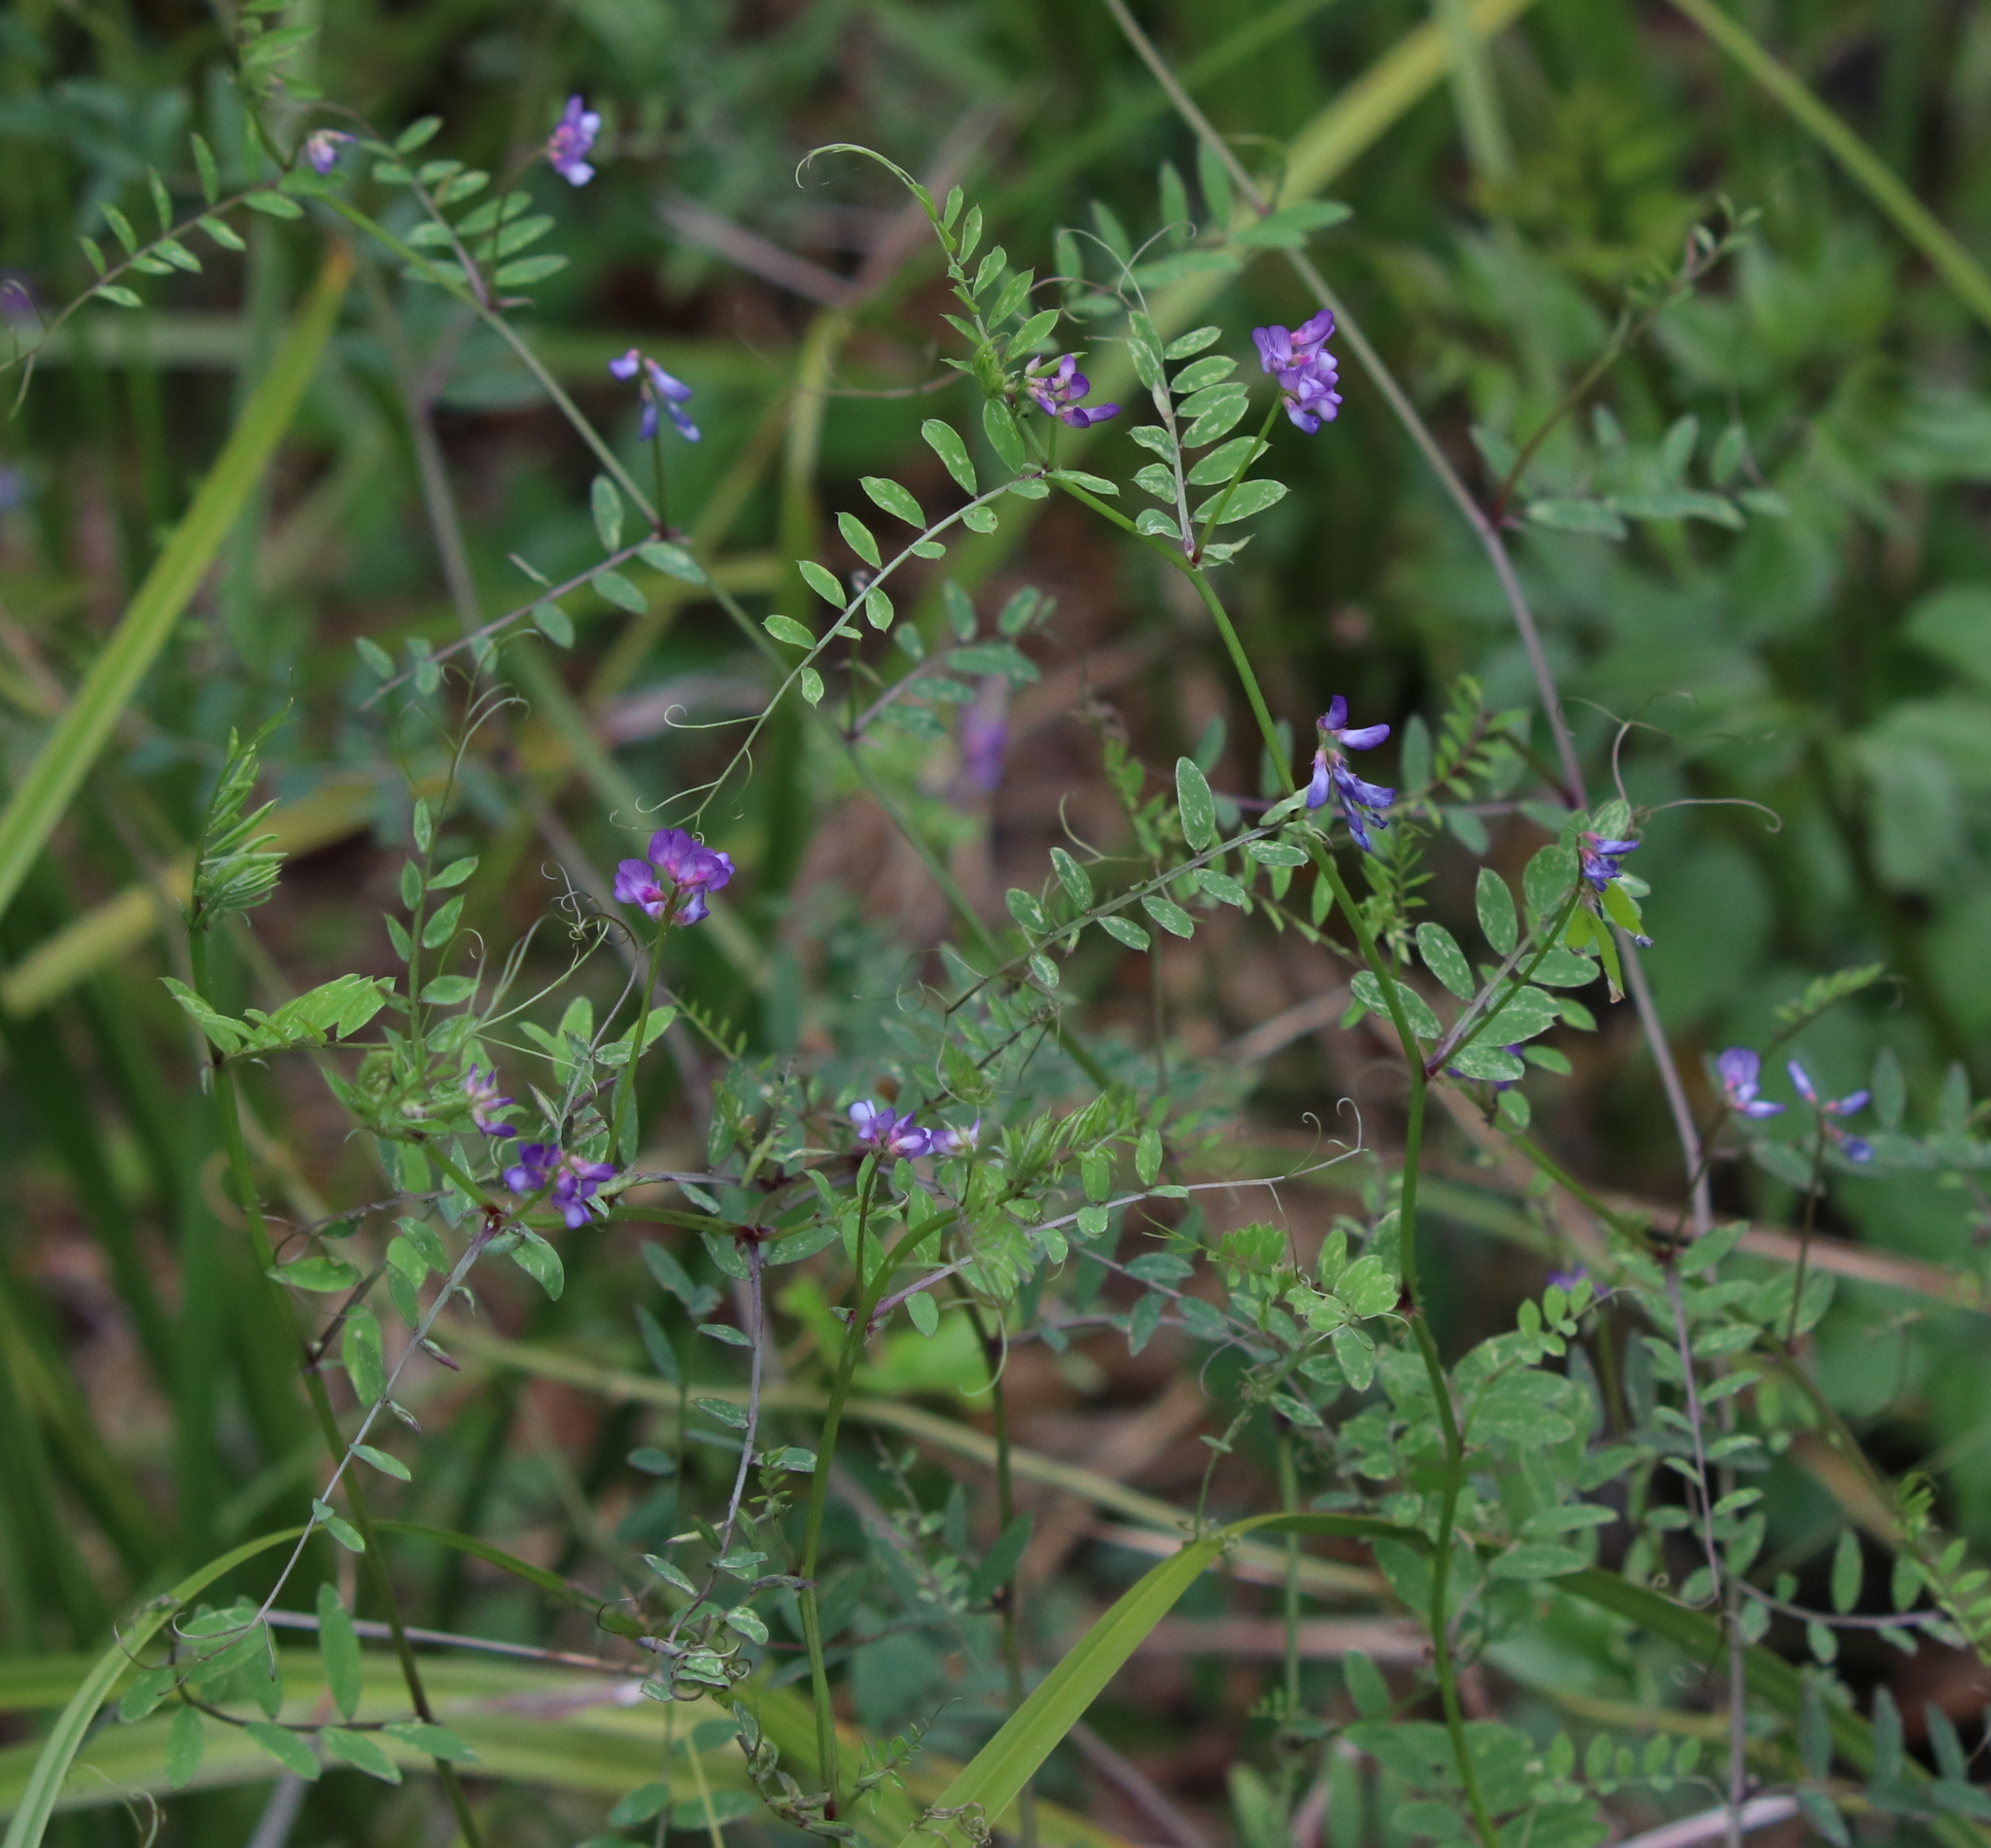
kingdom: Plantae
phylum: Tracheophyta
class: Magnoliopsida
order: Fabales
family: Fabaceae
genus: Vicia
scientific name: Vicia ludoviciana
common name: Louisiana vetch
